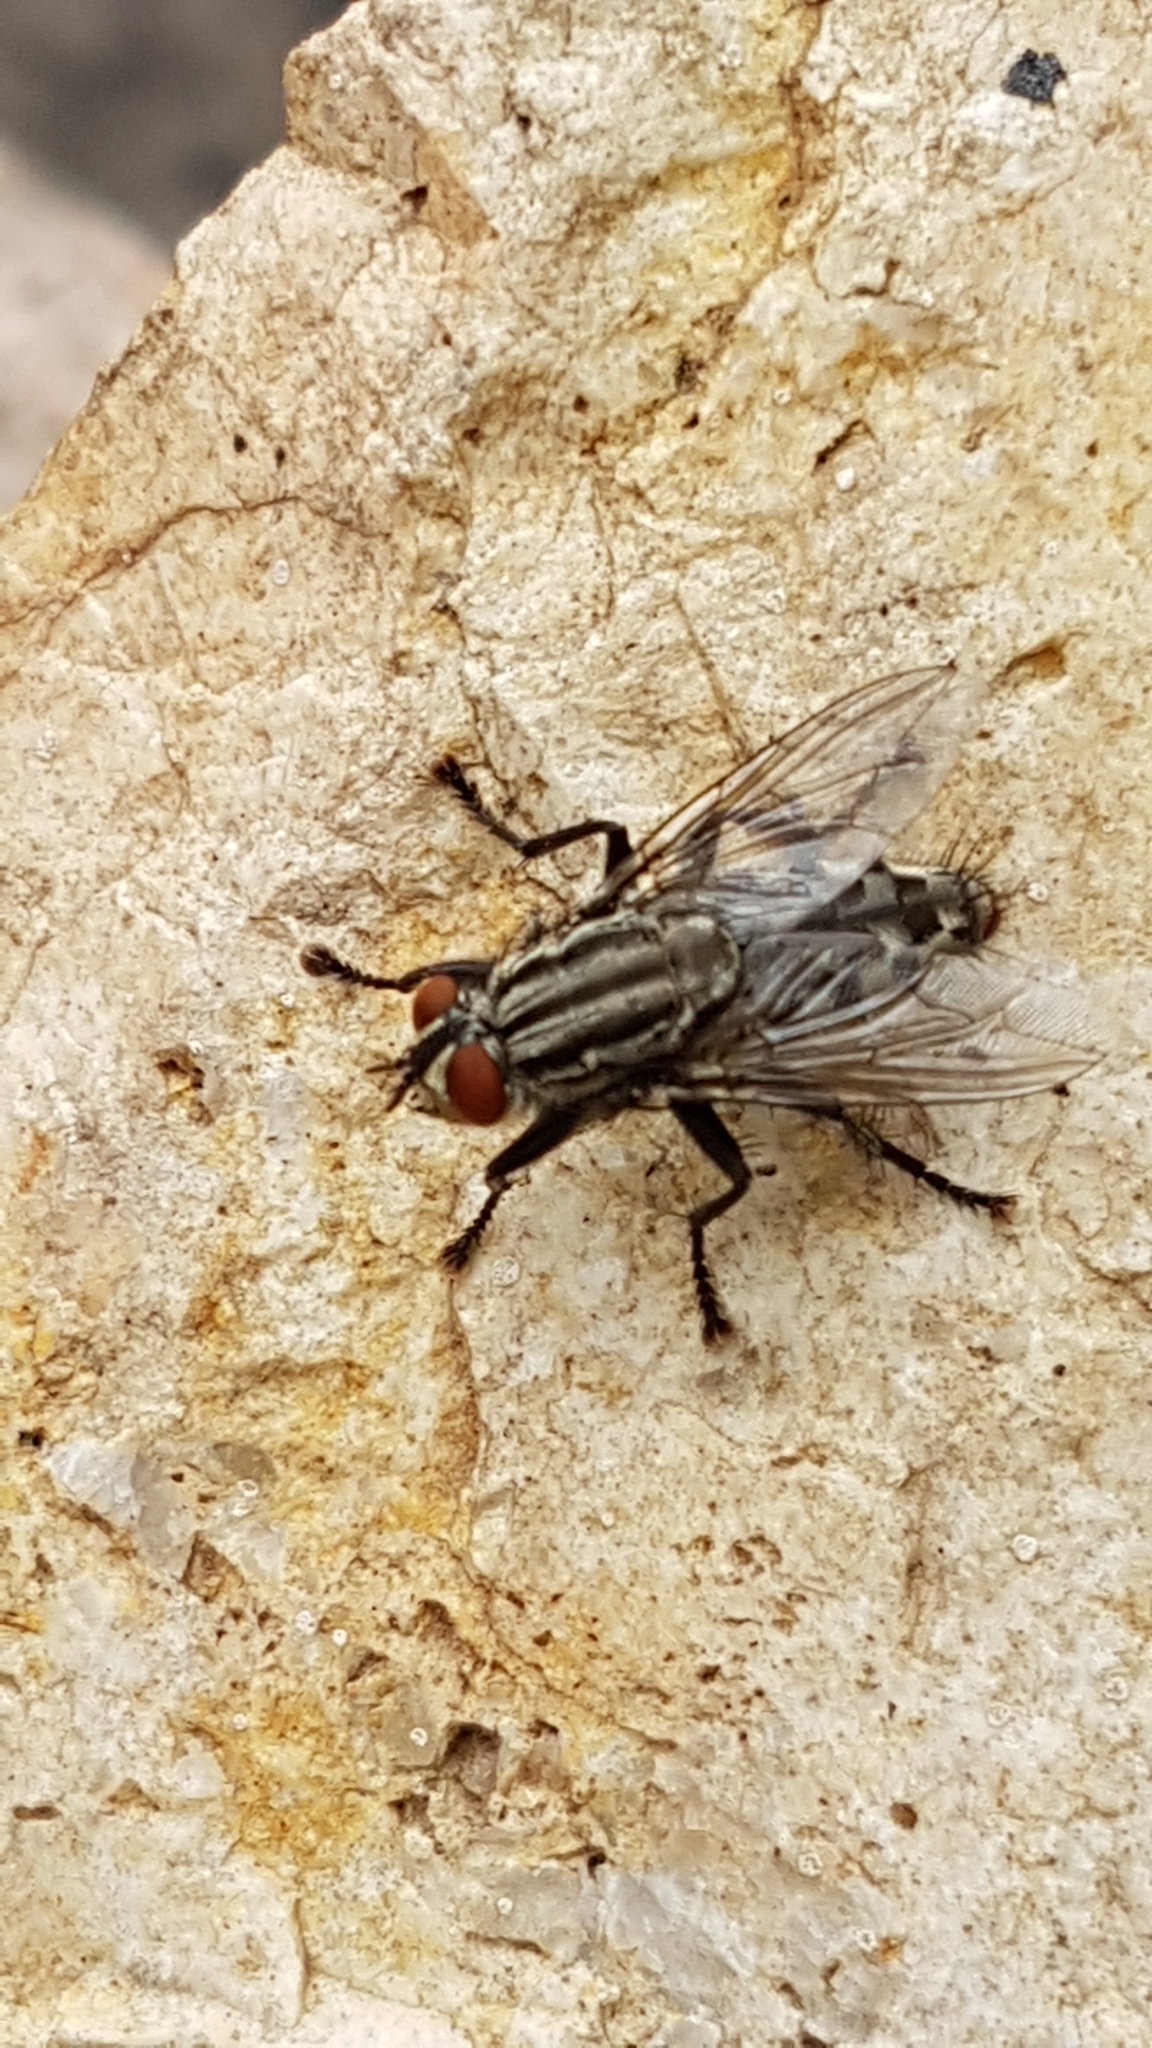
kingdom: Animalia
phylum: Arthropoda
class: Insecta
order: Diptera
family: Sarcophagidae
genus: Sarcophaga
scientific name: Sarcophaga
